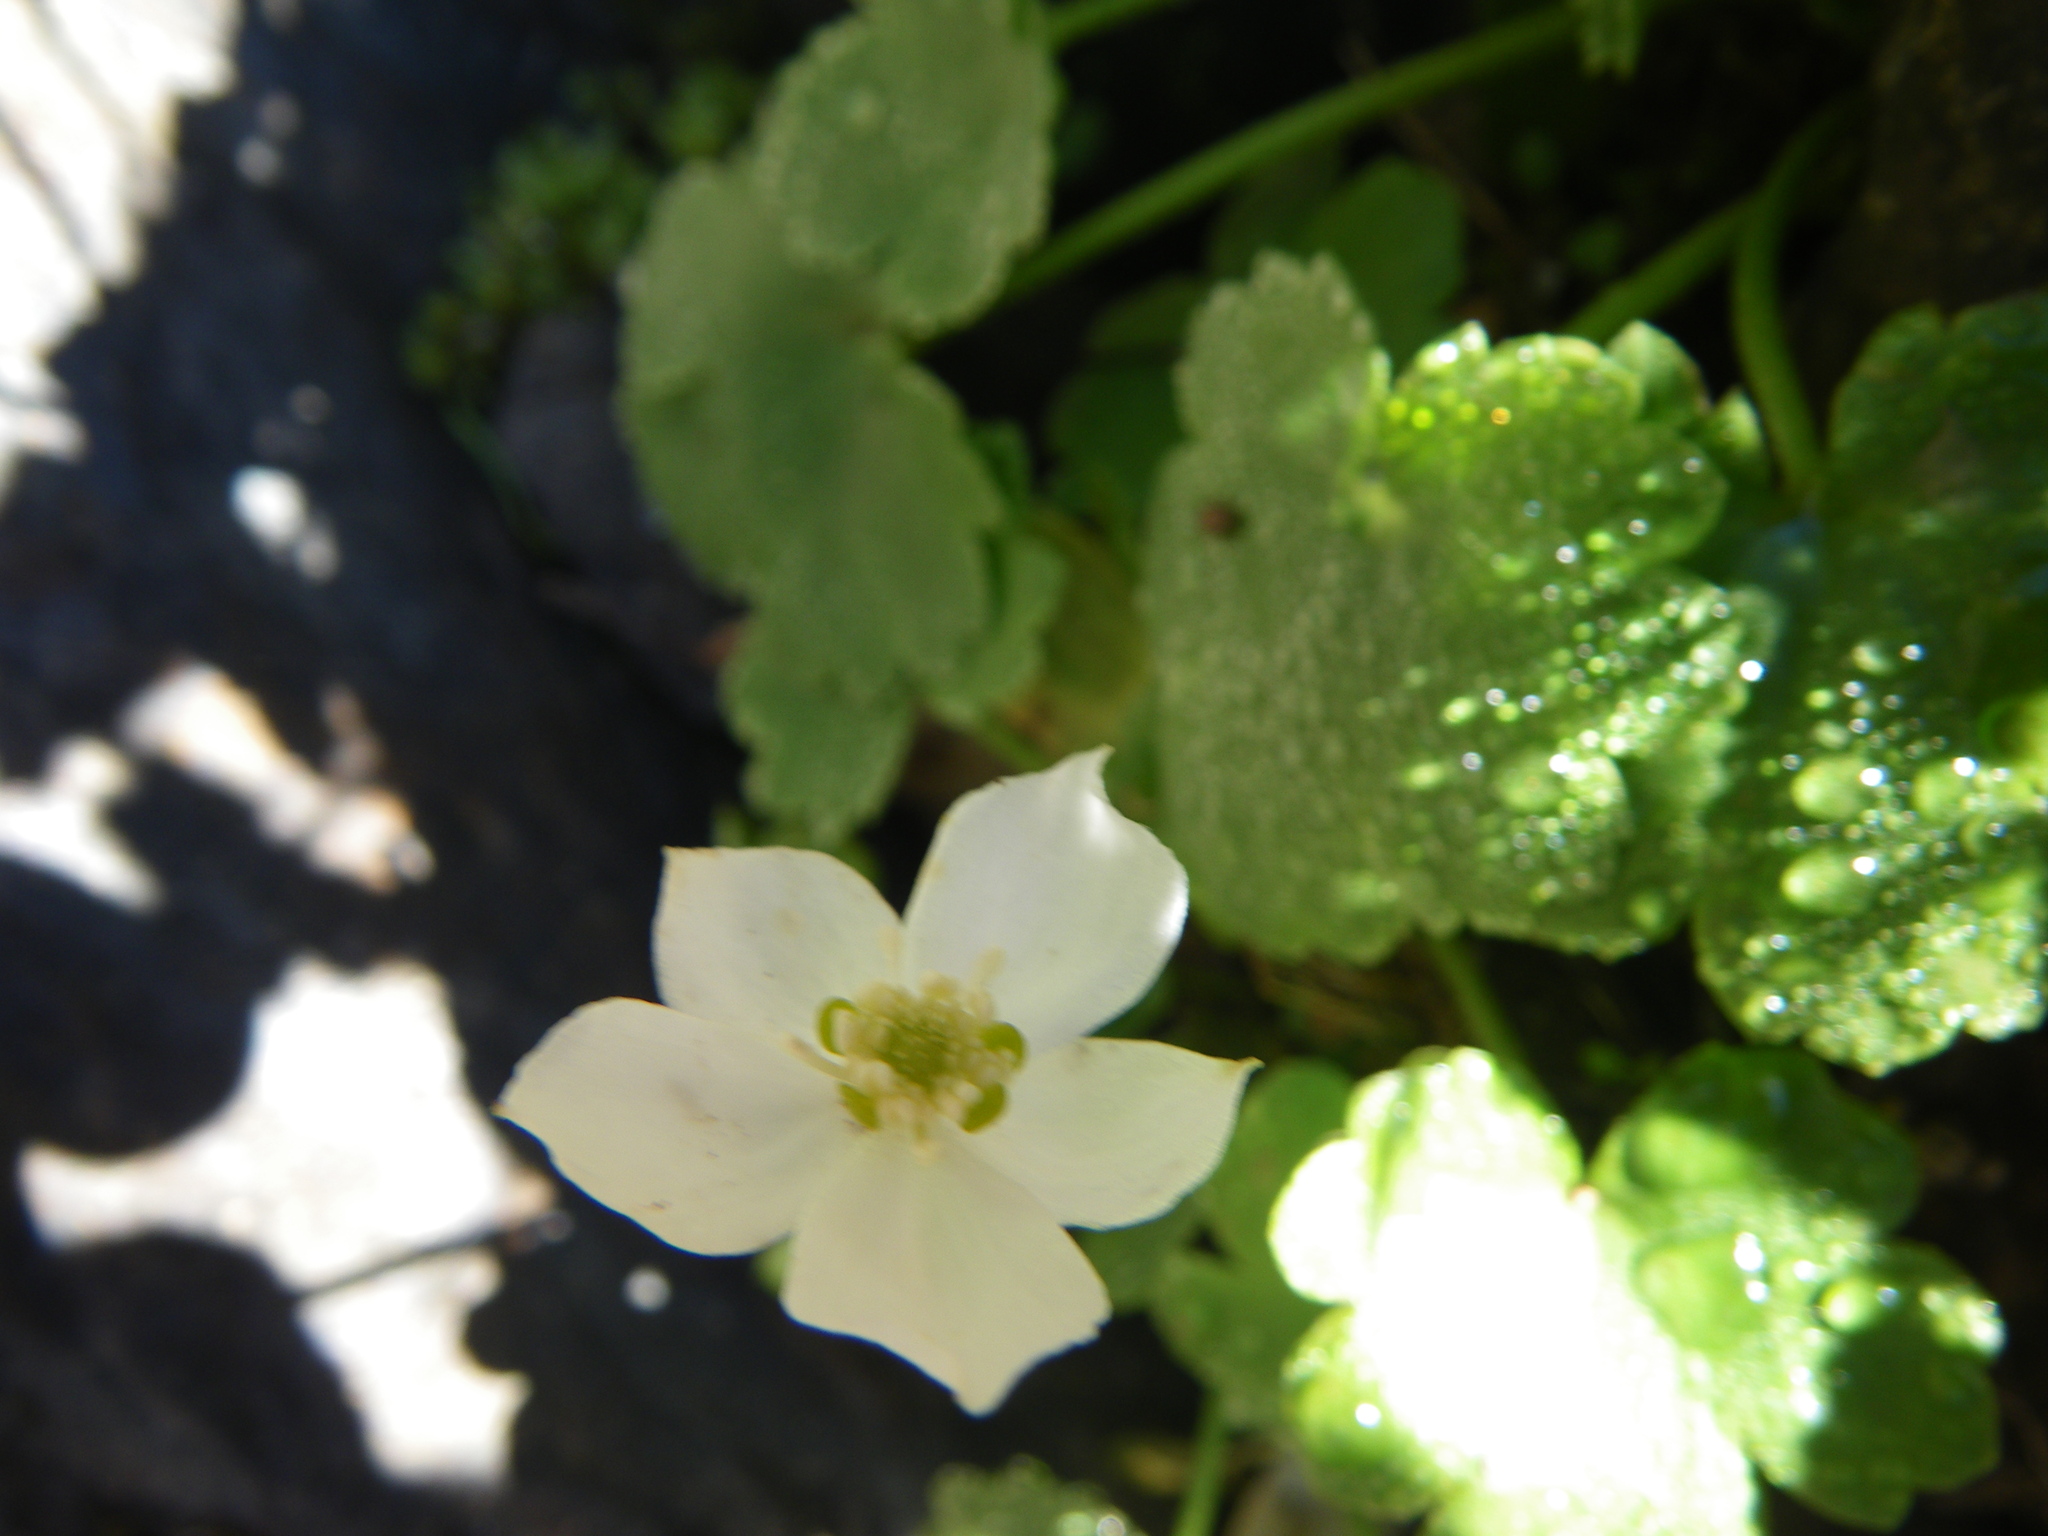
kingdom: Plantae
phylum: Tracheophyta
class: Magnoliopsida
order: Ranunculales
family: Ranunculaceae
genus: Kumlienia
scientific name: Kumlienia hystricula
